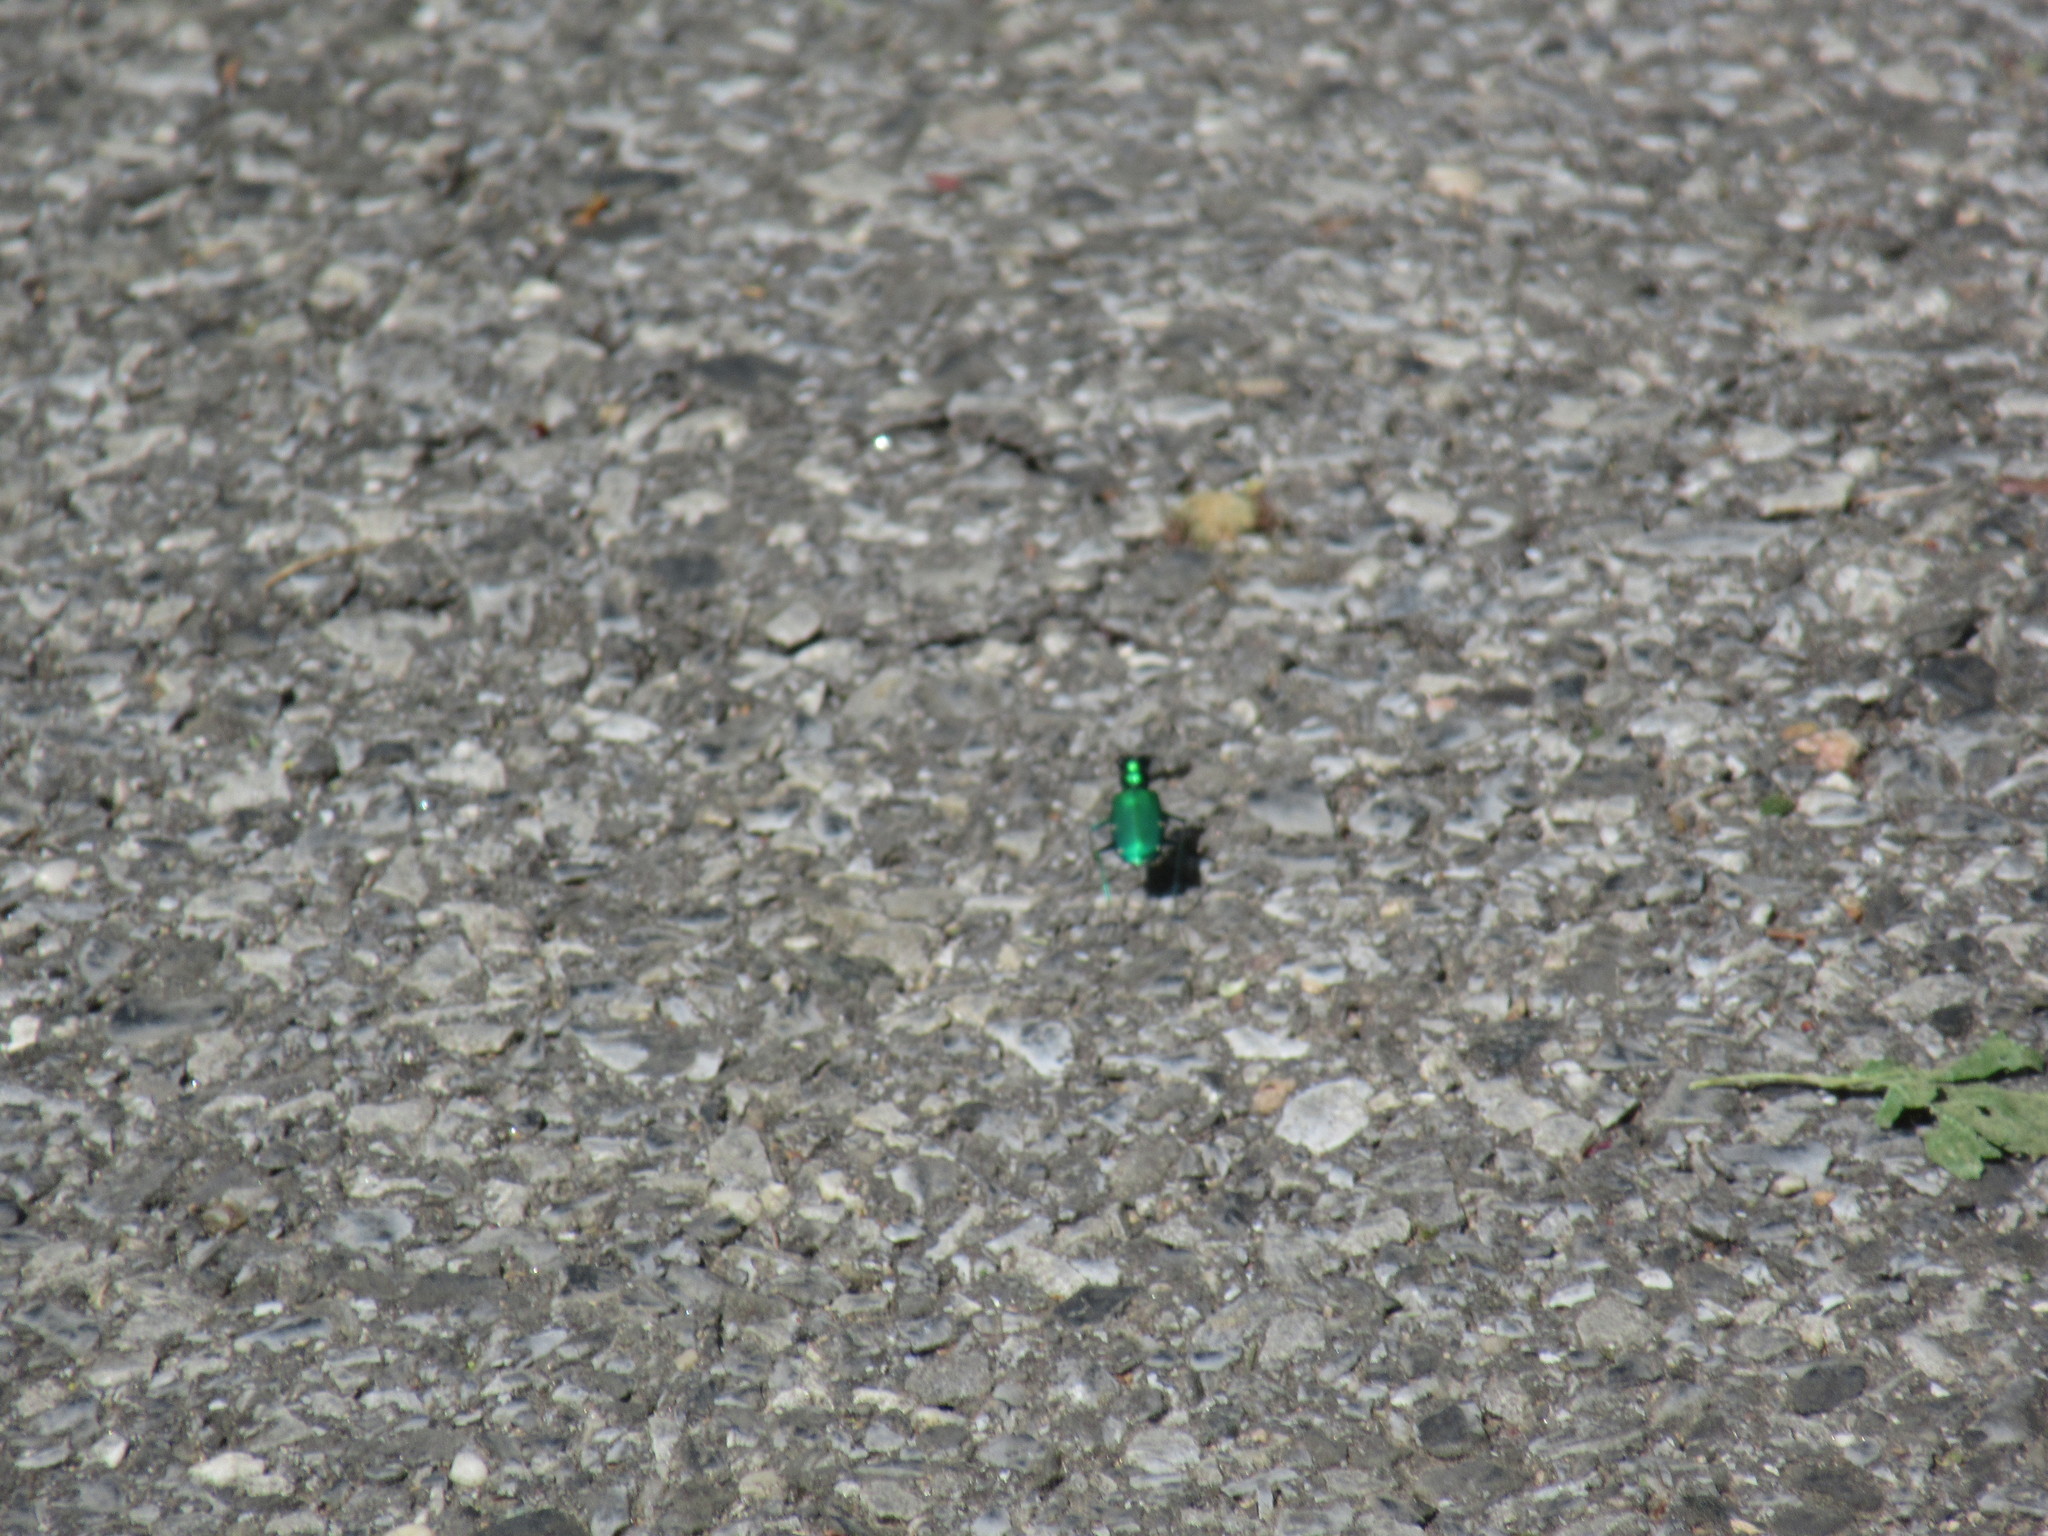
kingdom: Animalia
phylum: Arthropoda
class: Insecta
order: Coleoptera
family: Carabidae
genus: Cicindela
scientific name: Cicindela sexguttata
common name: Six-spotted tiger beetle
